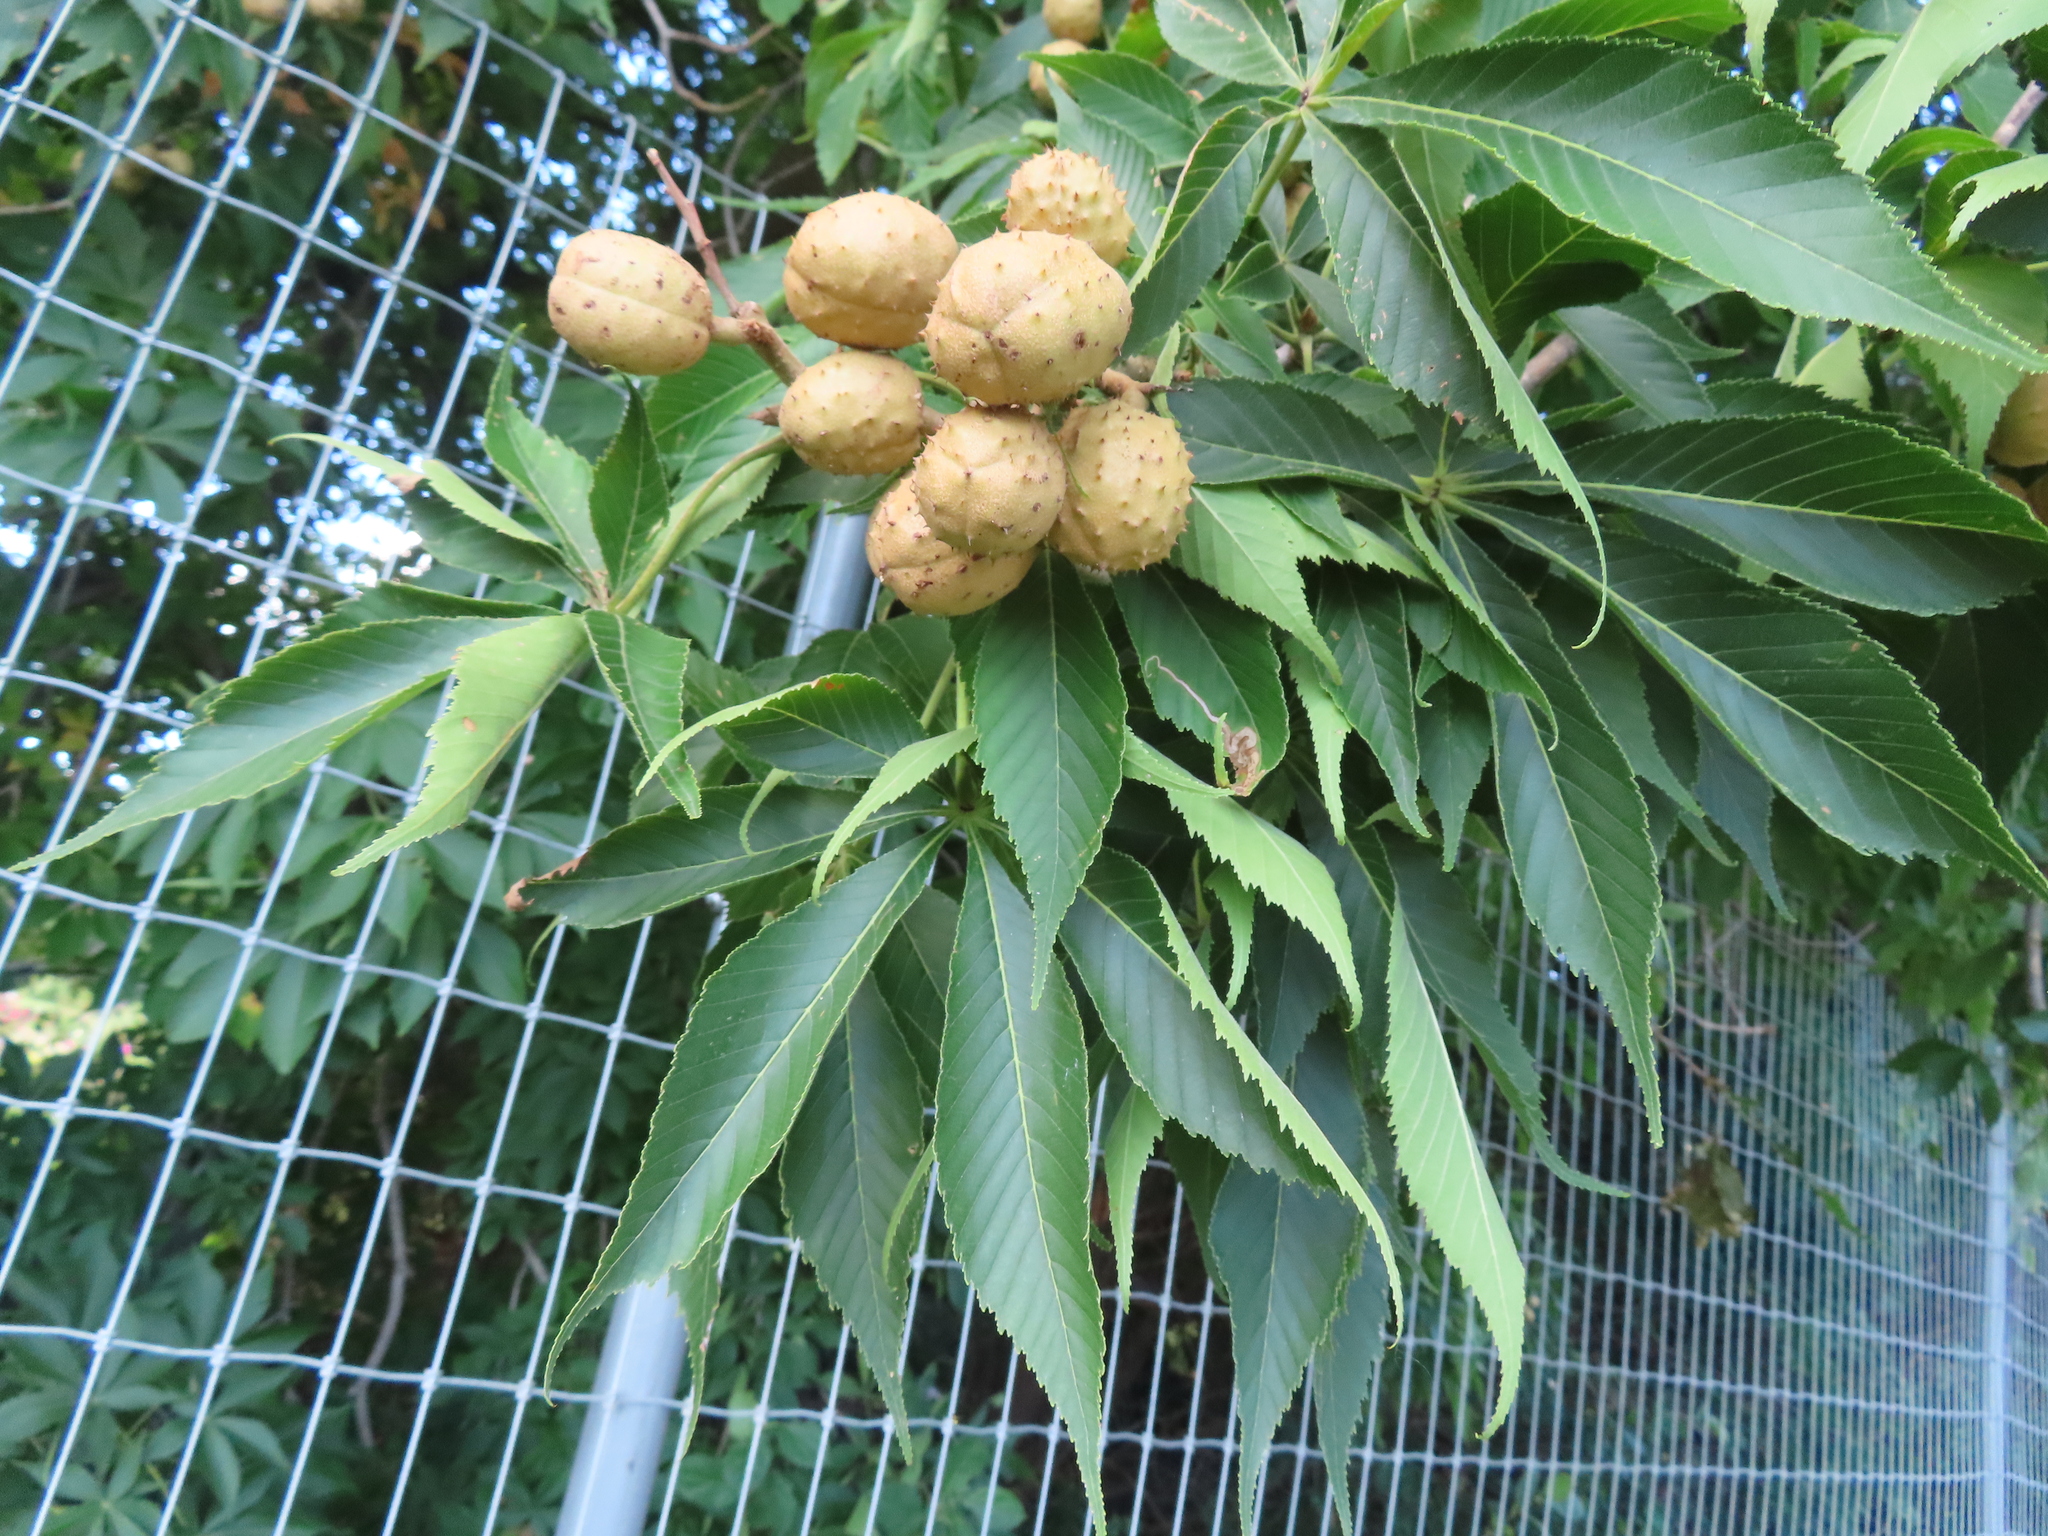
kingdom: Plantae
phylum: Tracheophyta
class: Magnoliopsida
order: Sapindales
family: Sapindaceae
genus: Aesculus
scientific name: Aesculus glabra
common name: Ohio buckeye
